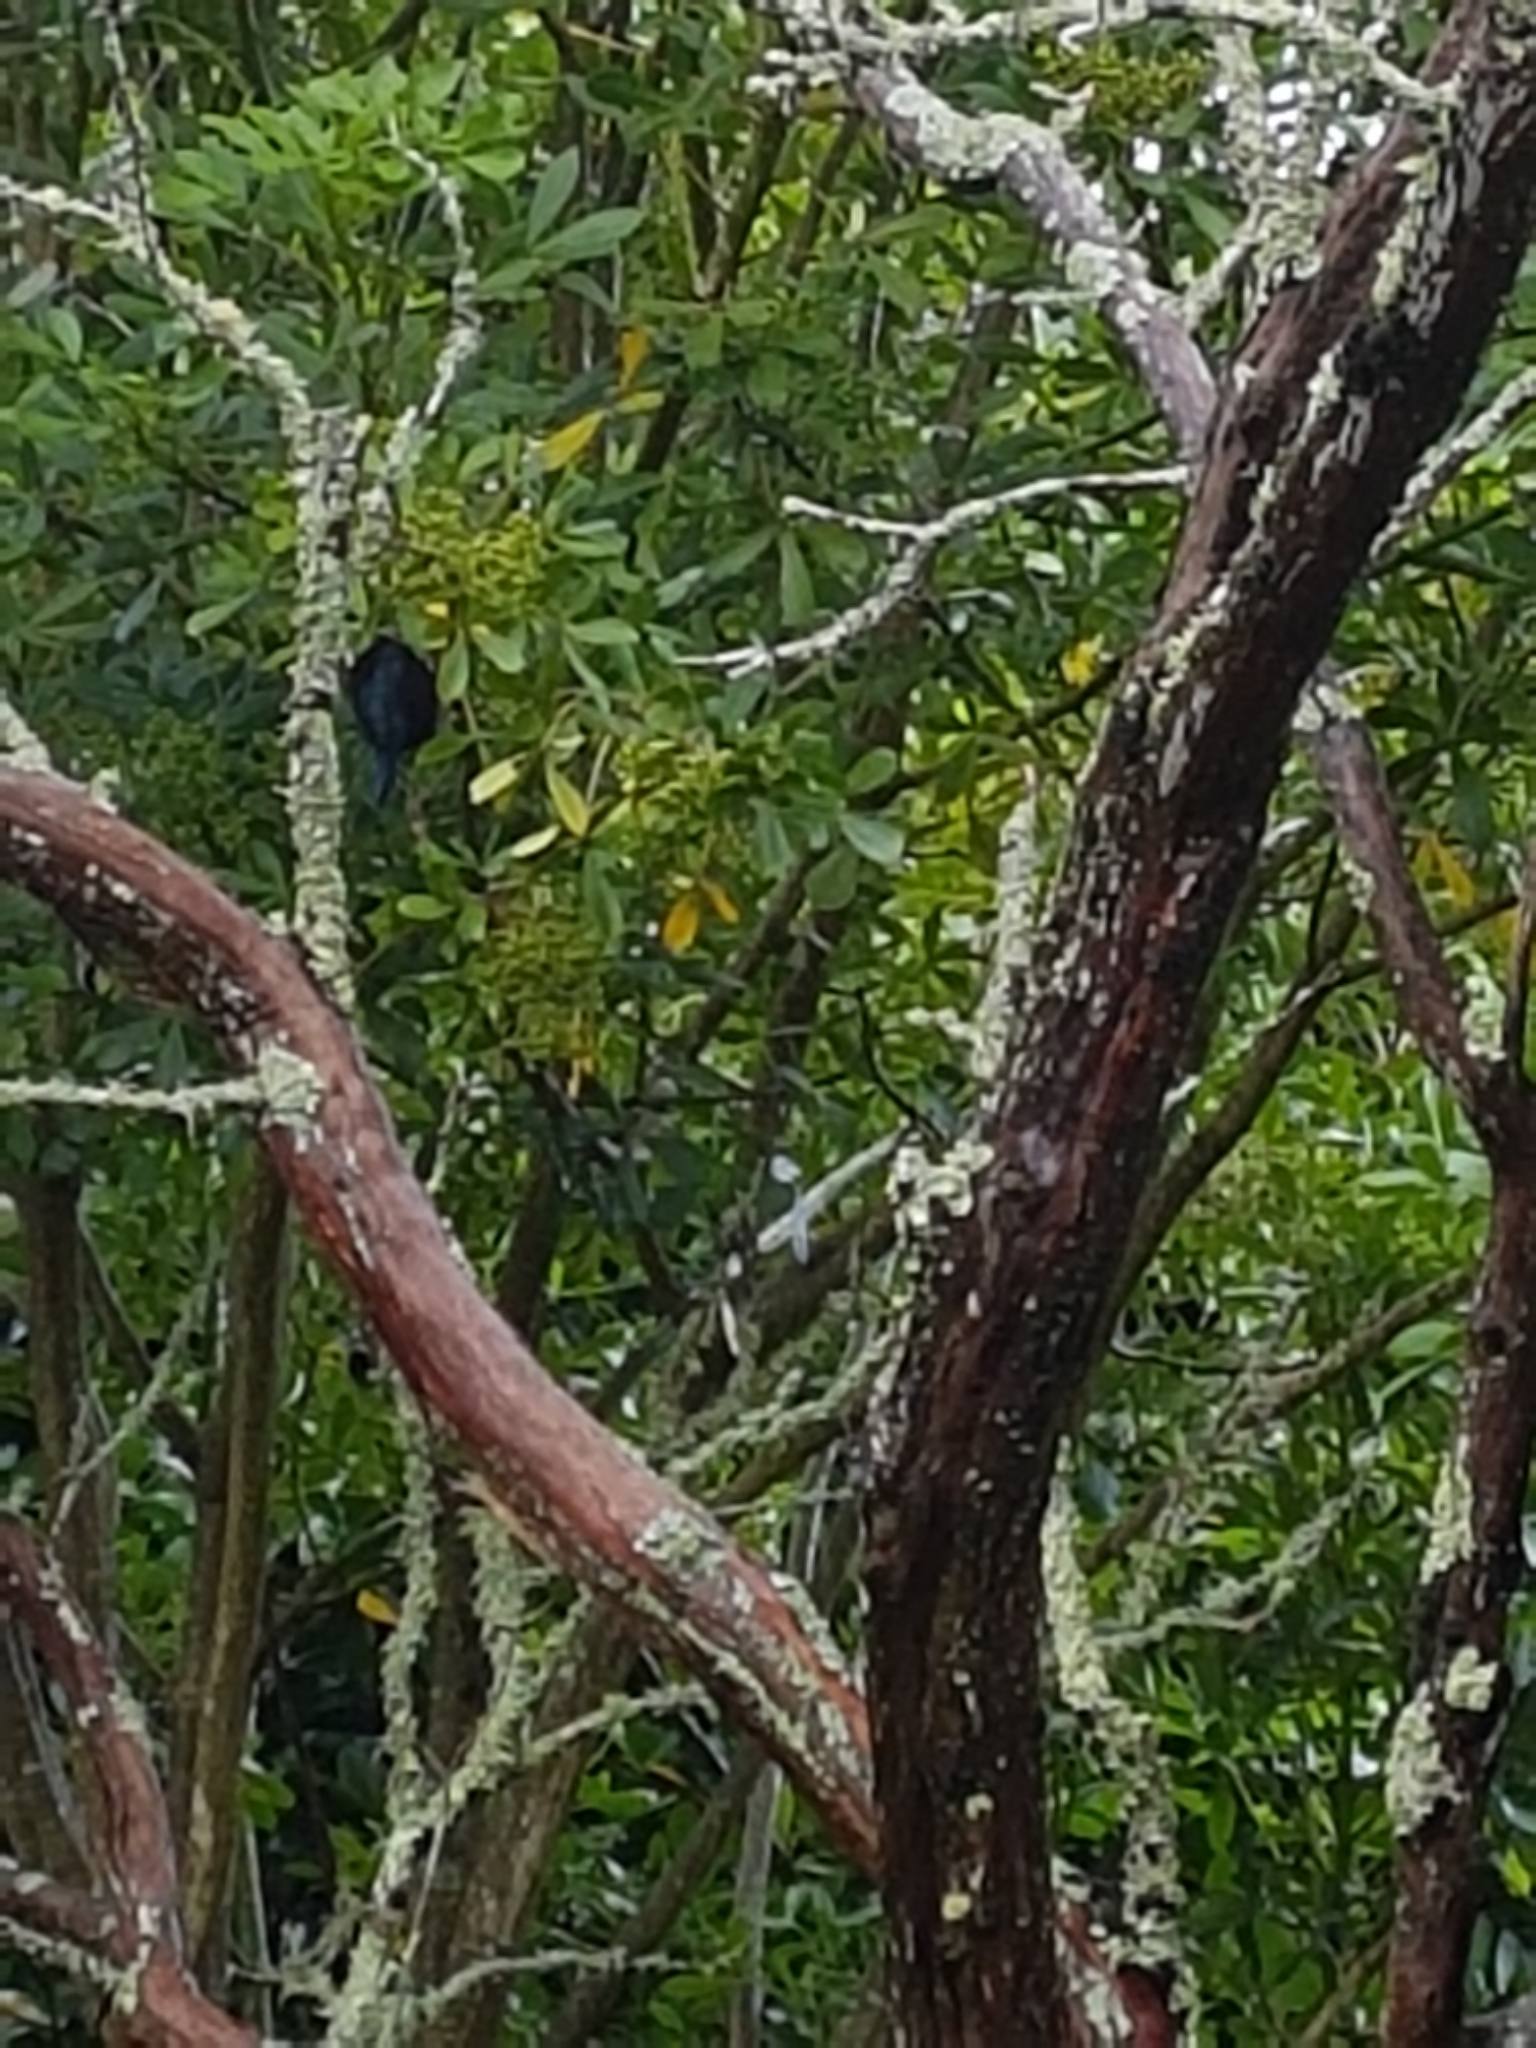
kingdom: Animalia
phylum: Chordata
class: Aves
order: Passeriformes
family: Meliphagidae
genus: Prosthemadera
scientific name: Prosthemadera novaeseelandiae
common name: Tui
